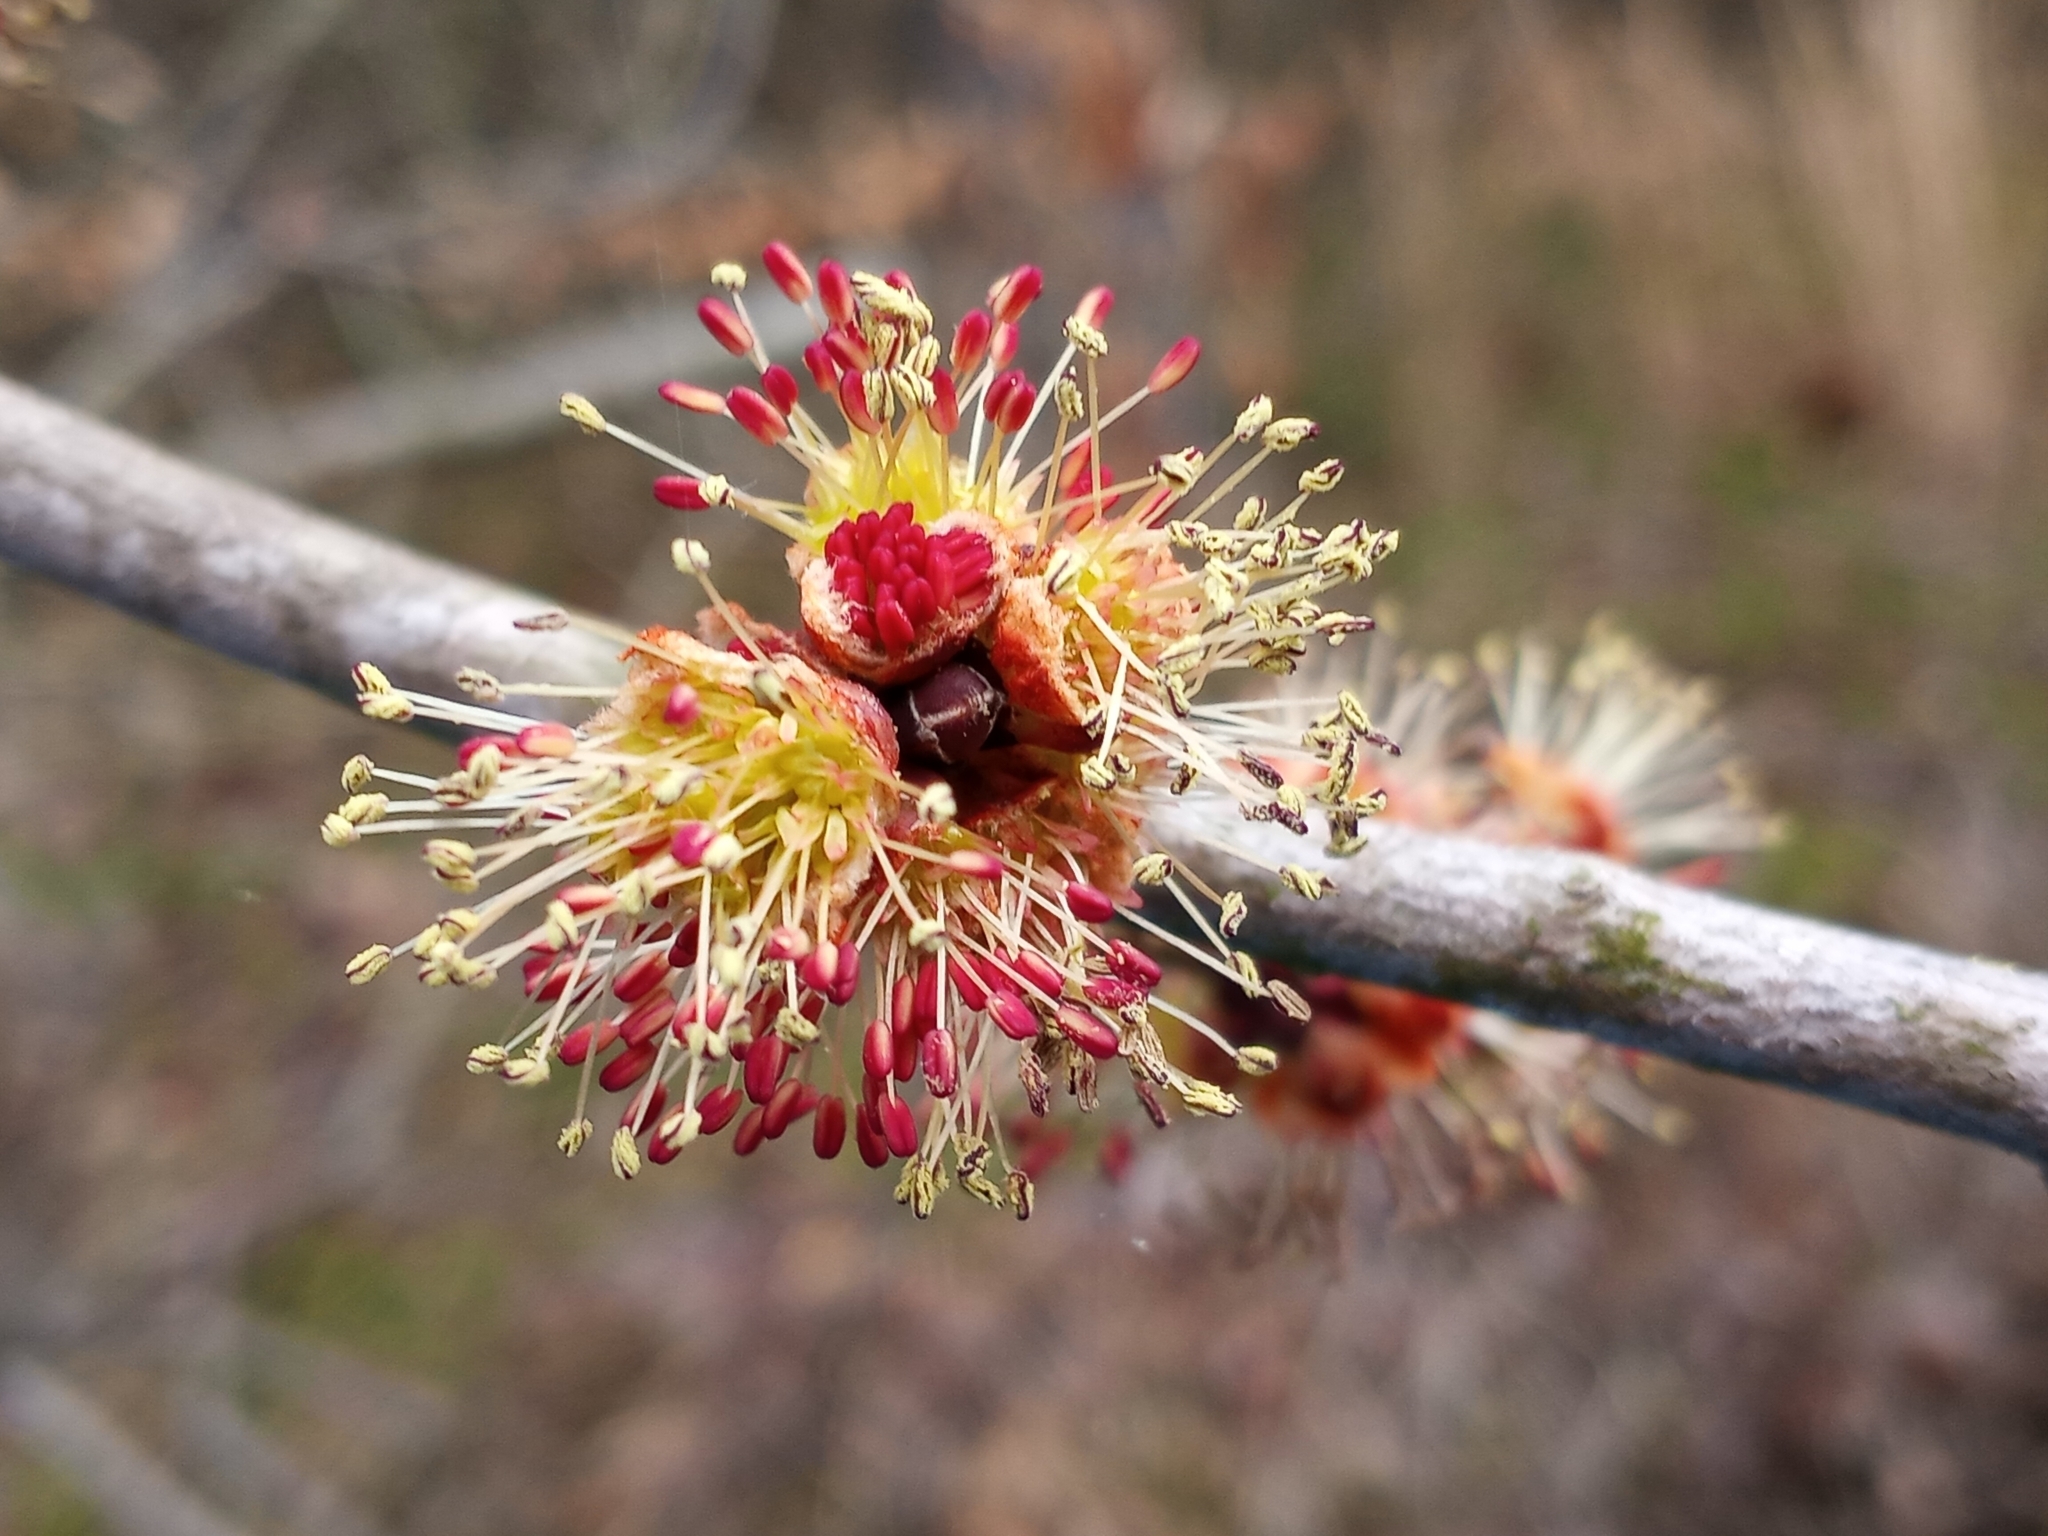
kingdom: Plantae
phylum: Tracheophyta
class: Magnoliopsida
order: Sapindales
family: Sapindaceae
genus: Acer
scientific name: Acer rubrum
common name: Red maple
